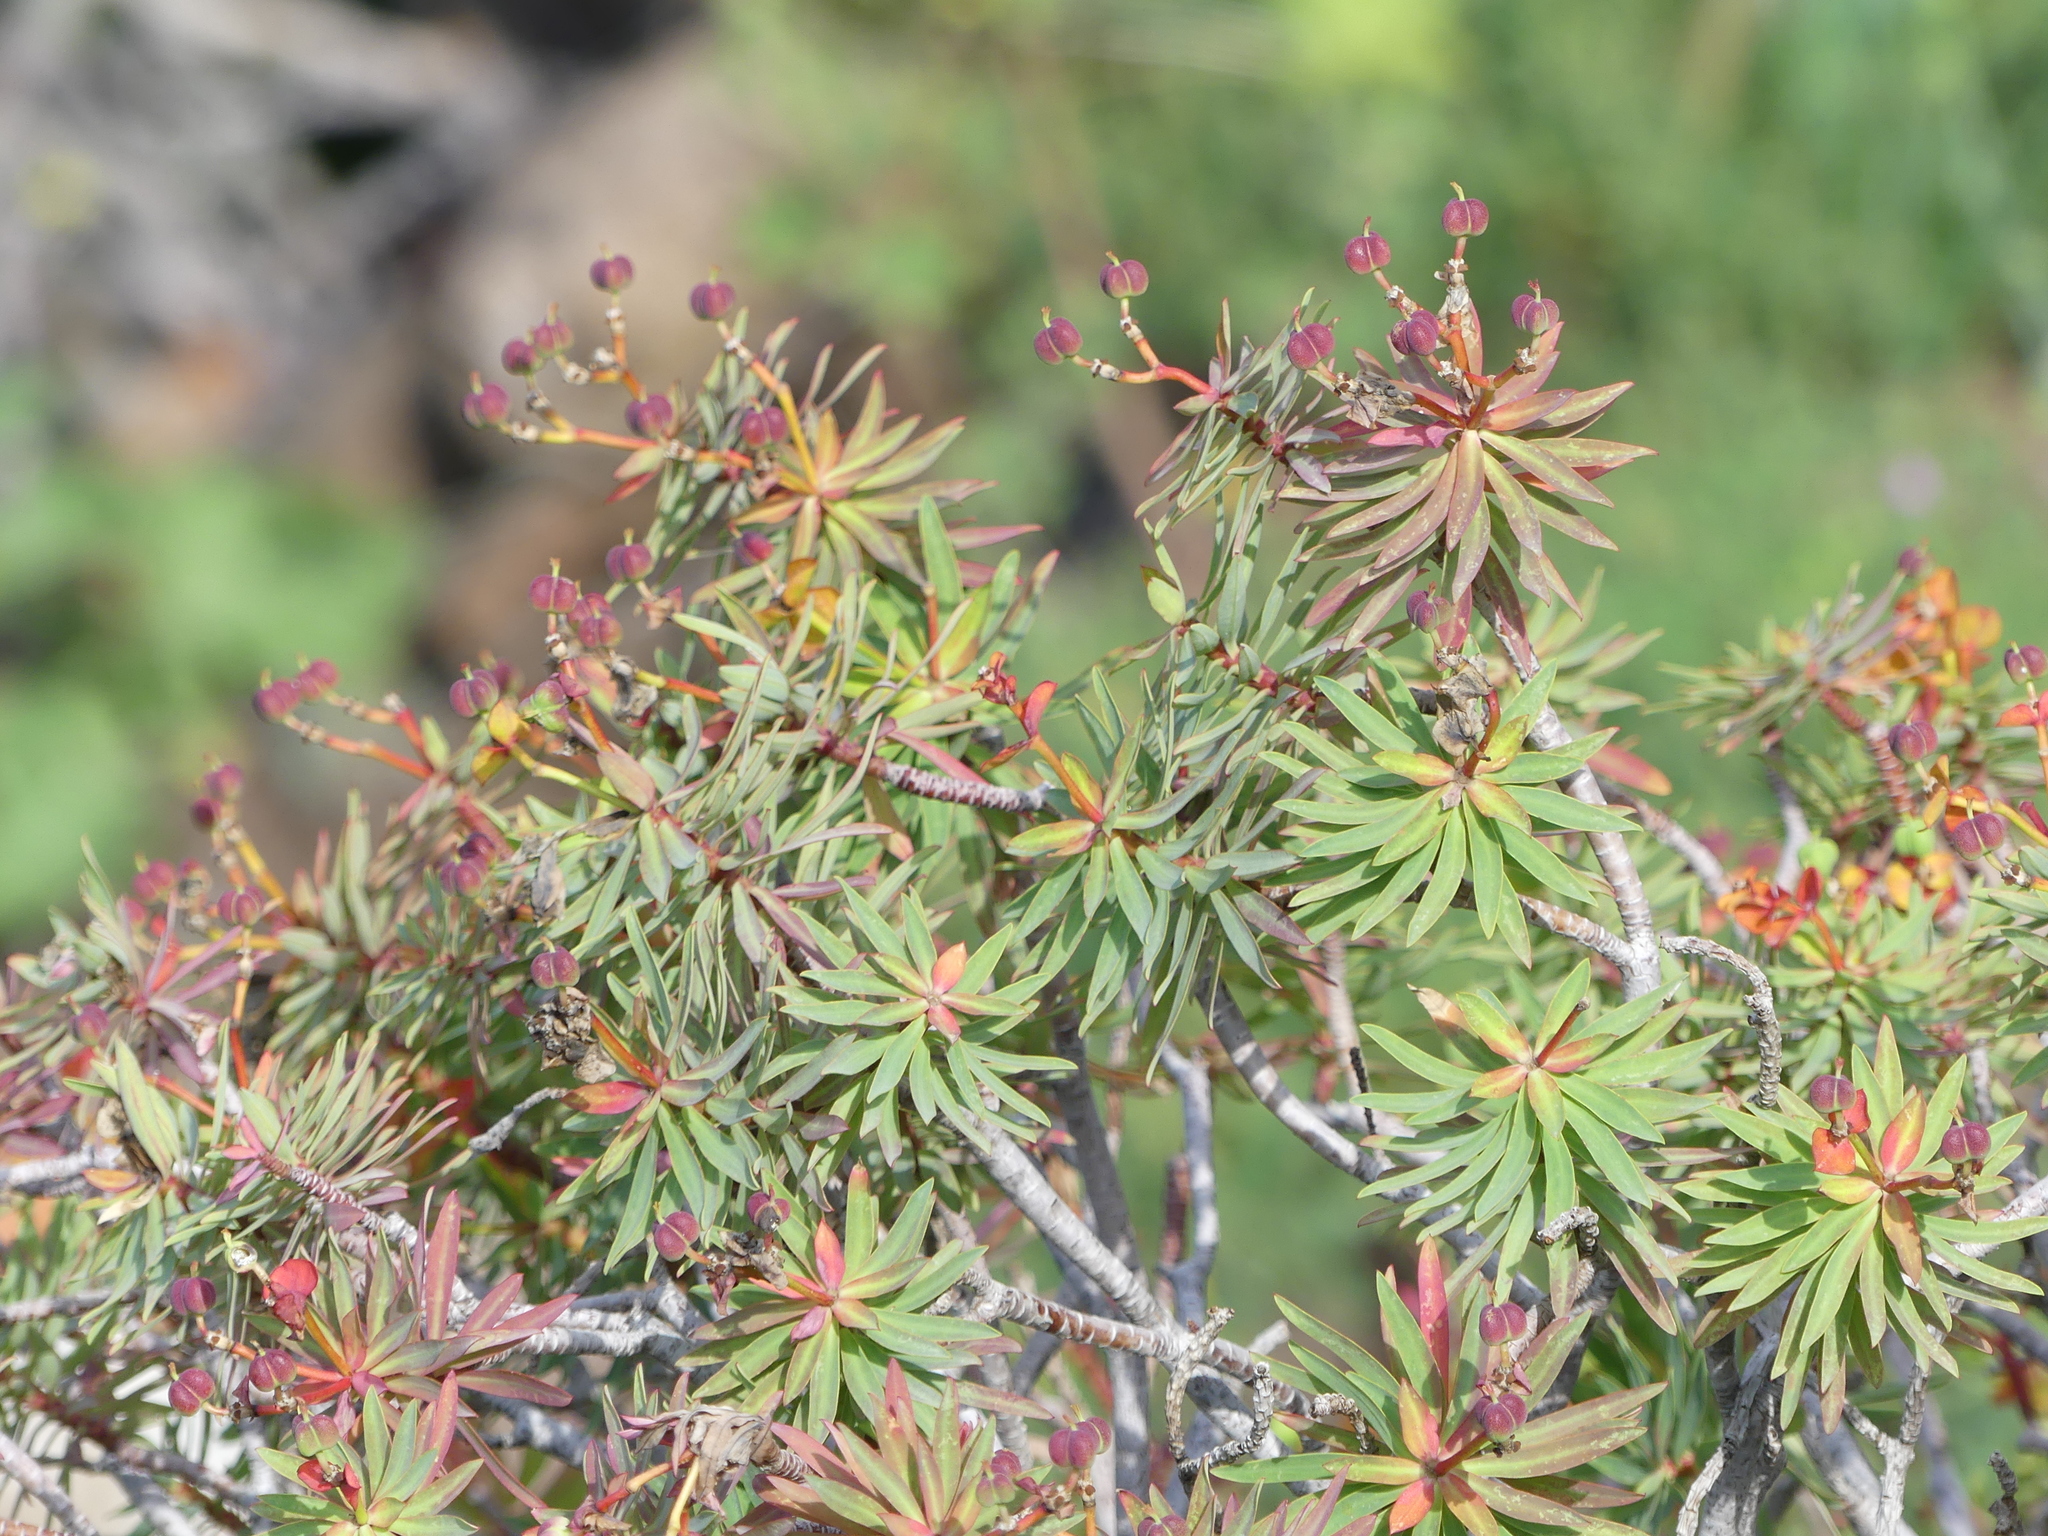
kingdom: Plantae
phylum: Tracheophyta
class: Magnoliopsida
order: Malpighiales
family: Euphorbiaceae
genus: Euphorbia
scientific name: Euphorbia dendroides
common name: Tree spurge
